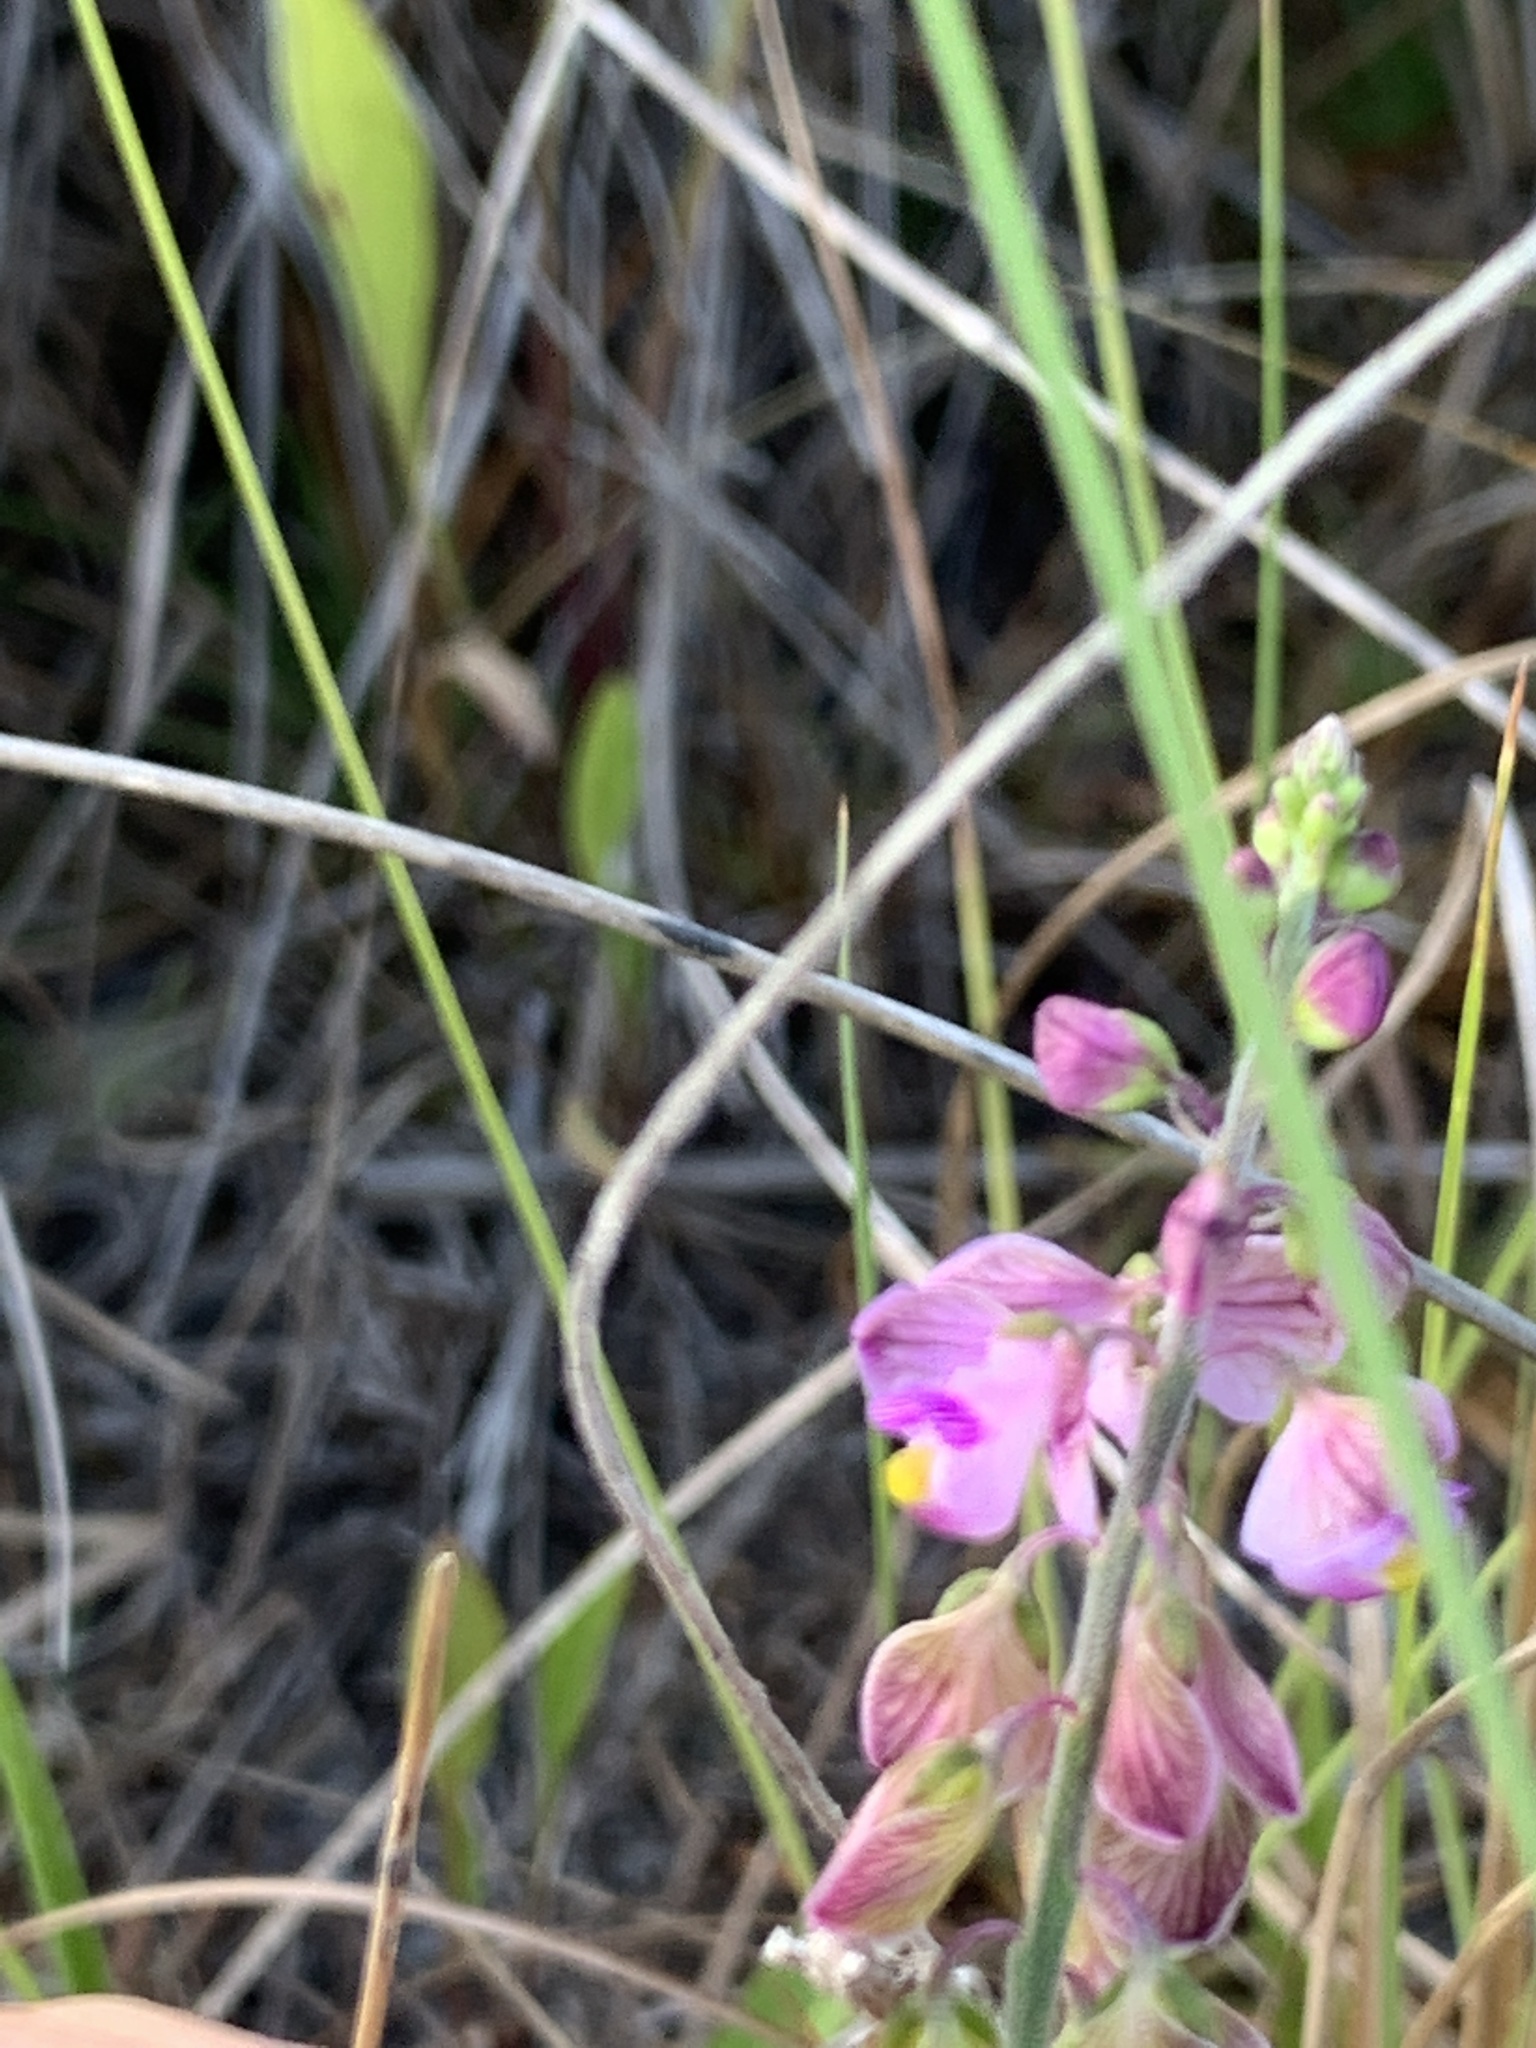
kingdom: Plantae
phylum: Tracheophyta
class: Magnoliopsida
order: Fabales
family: Polygalaceae
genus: Asemeia
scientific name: Asemeia grandiflora
